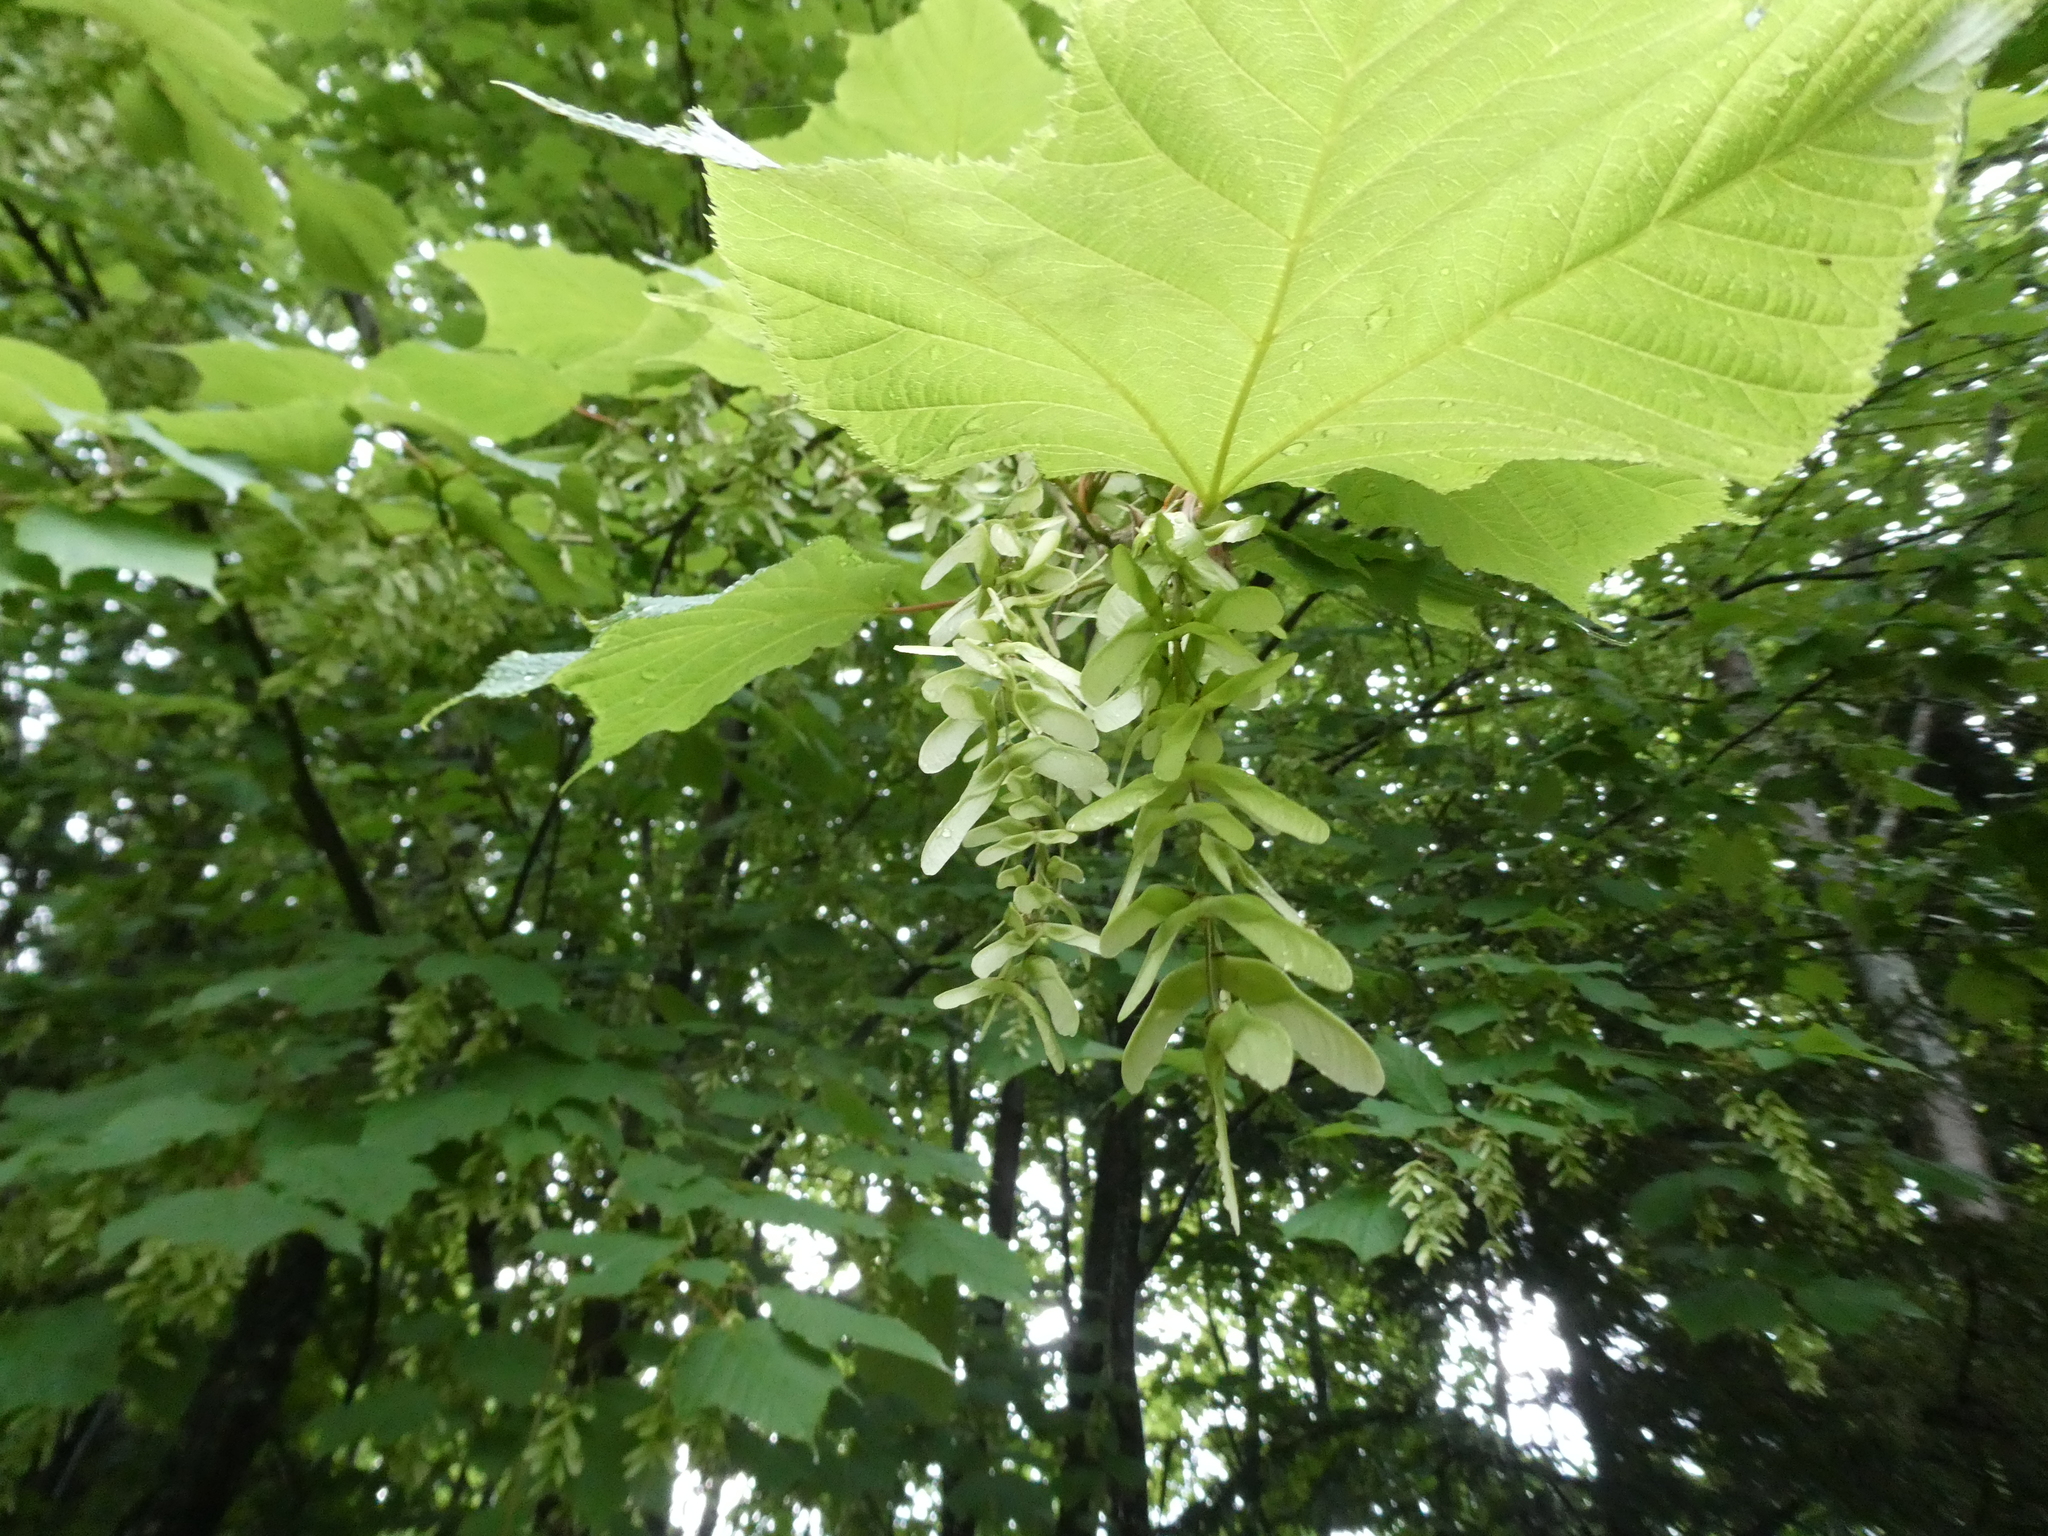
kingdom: Plantae
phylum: Tracheophyta
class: Magnoliopsida
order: Sapindales
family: Sapindaceae
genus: Acer
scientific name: Acer pensylvanicum
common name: Moosewood
